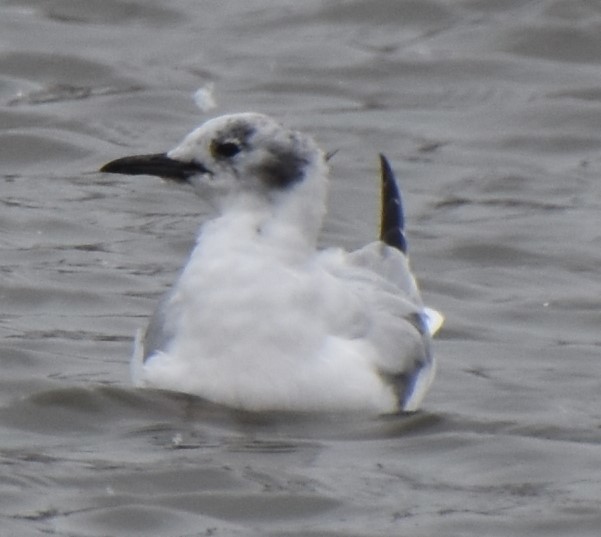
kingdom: Animalia
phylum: Chordata
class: Aves
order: Charadriiformes
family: Laridae
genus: Chroicocephalus
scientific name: Chroicocephalus philadelphia
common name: Bonaparte's gull
